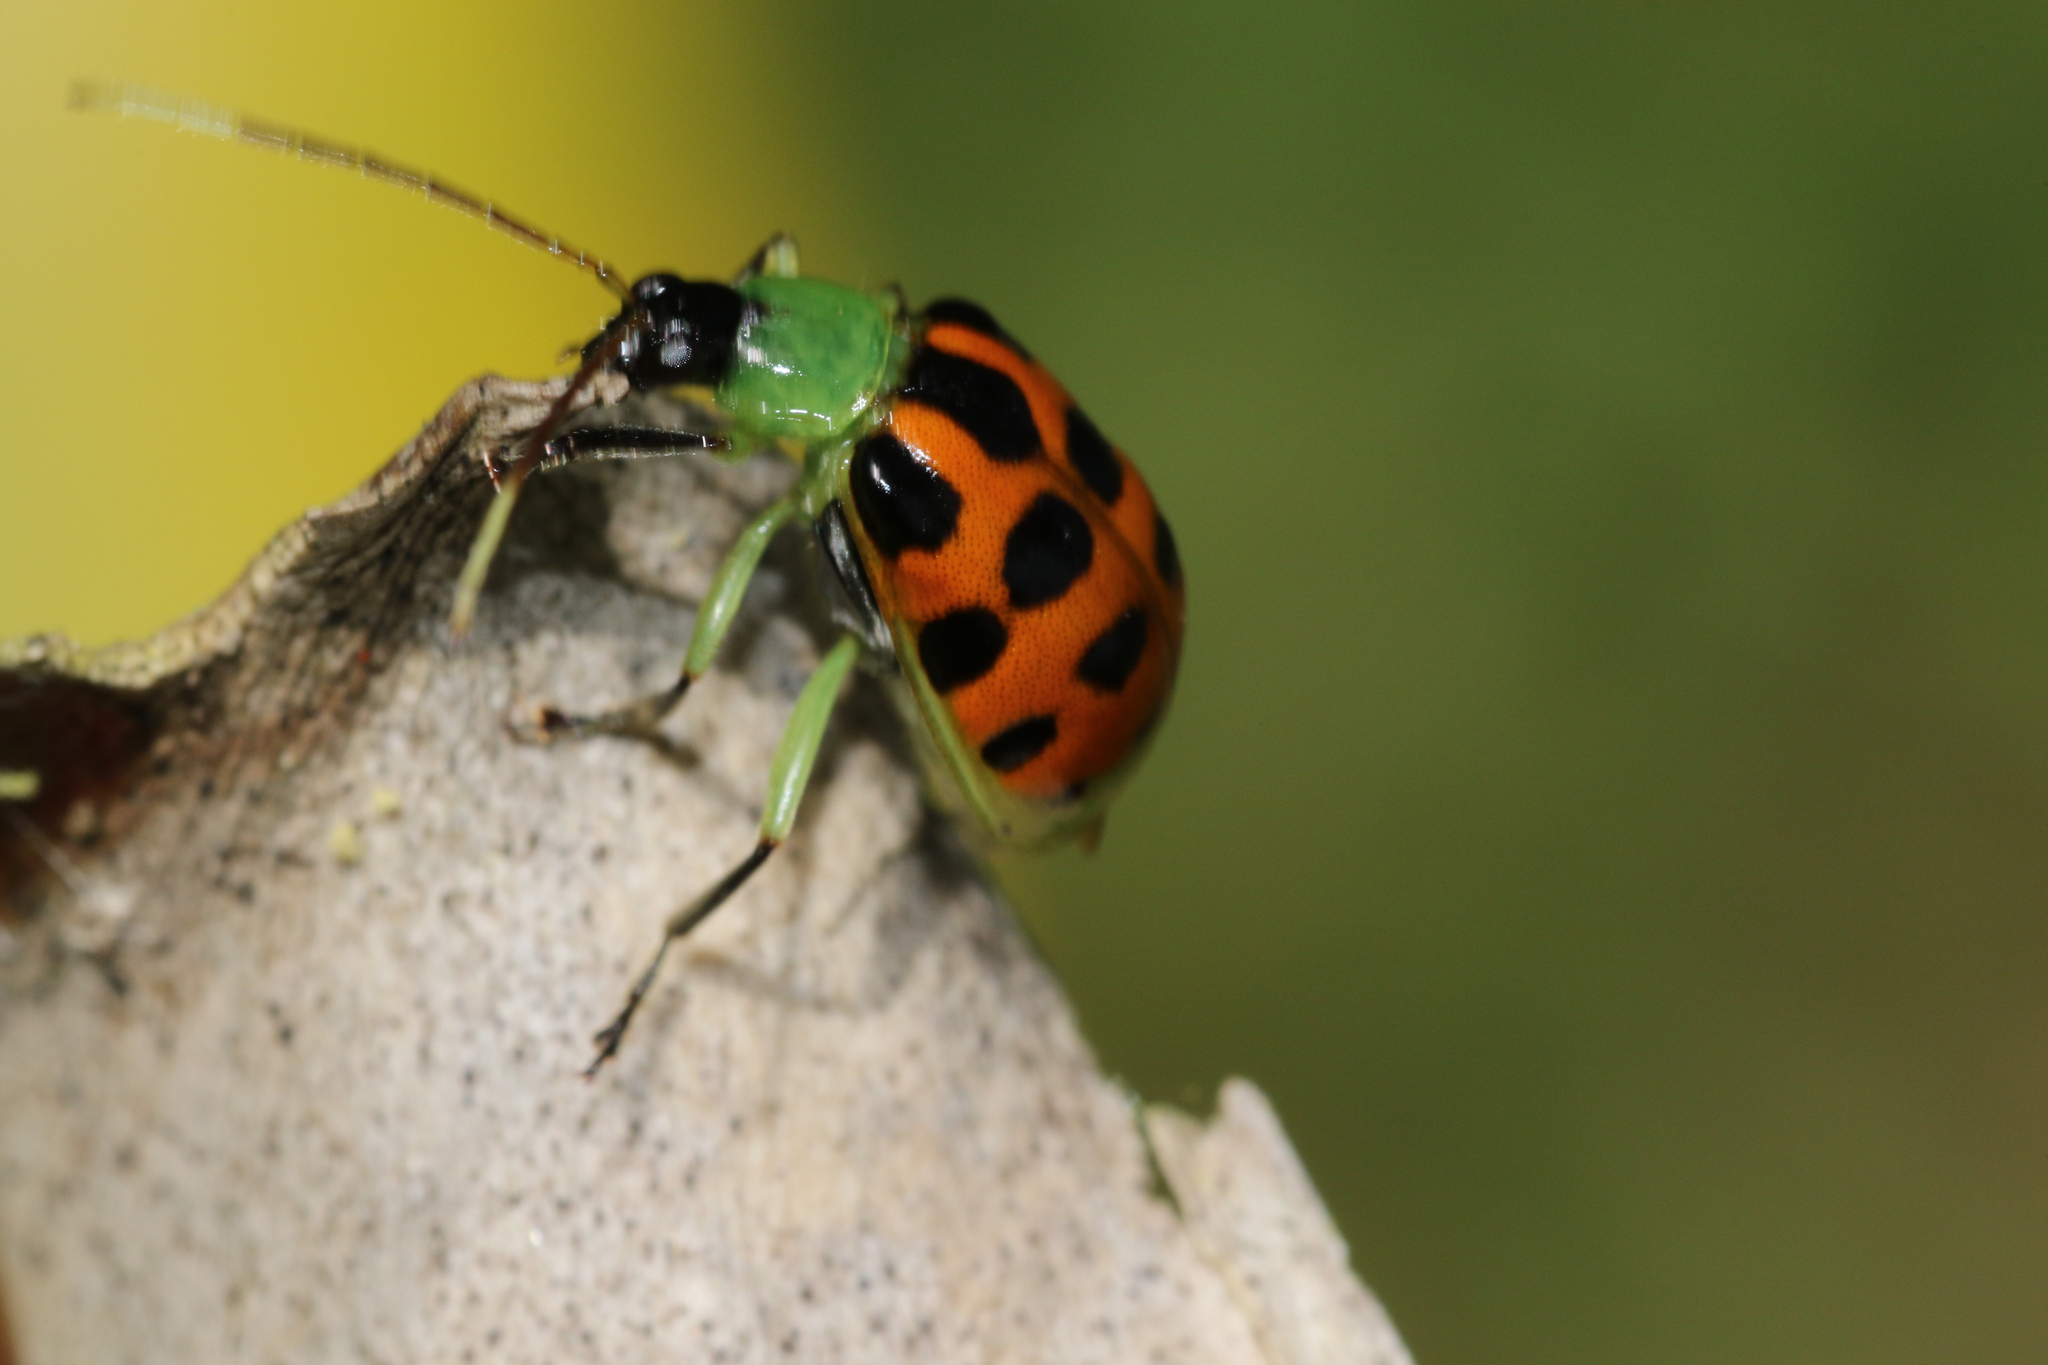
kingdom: Animalia
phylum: Arthropoda
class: Insecta
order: Coleoptera
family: Chrysomelidae
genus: Diabrotica
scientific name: Diabrotica limitata
